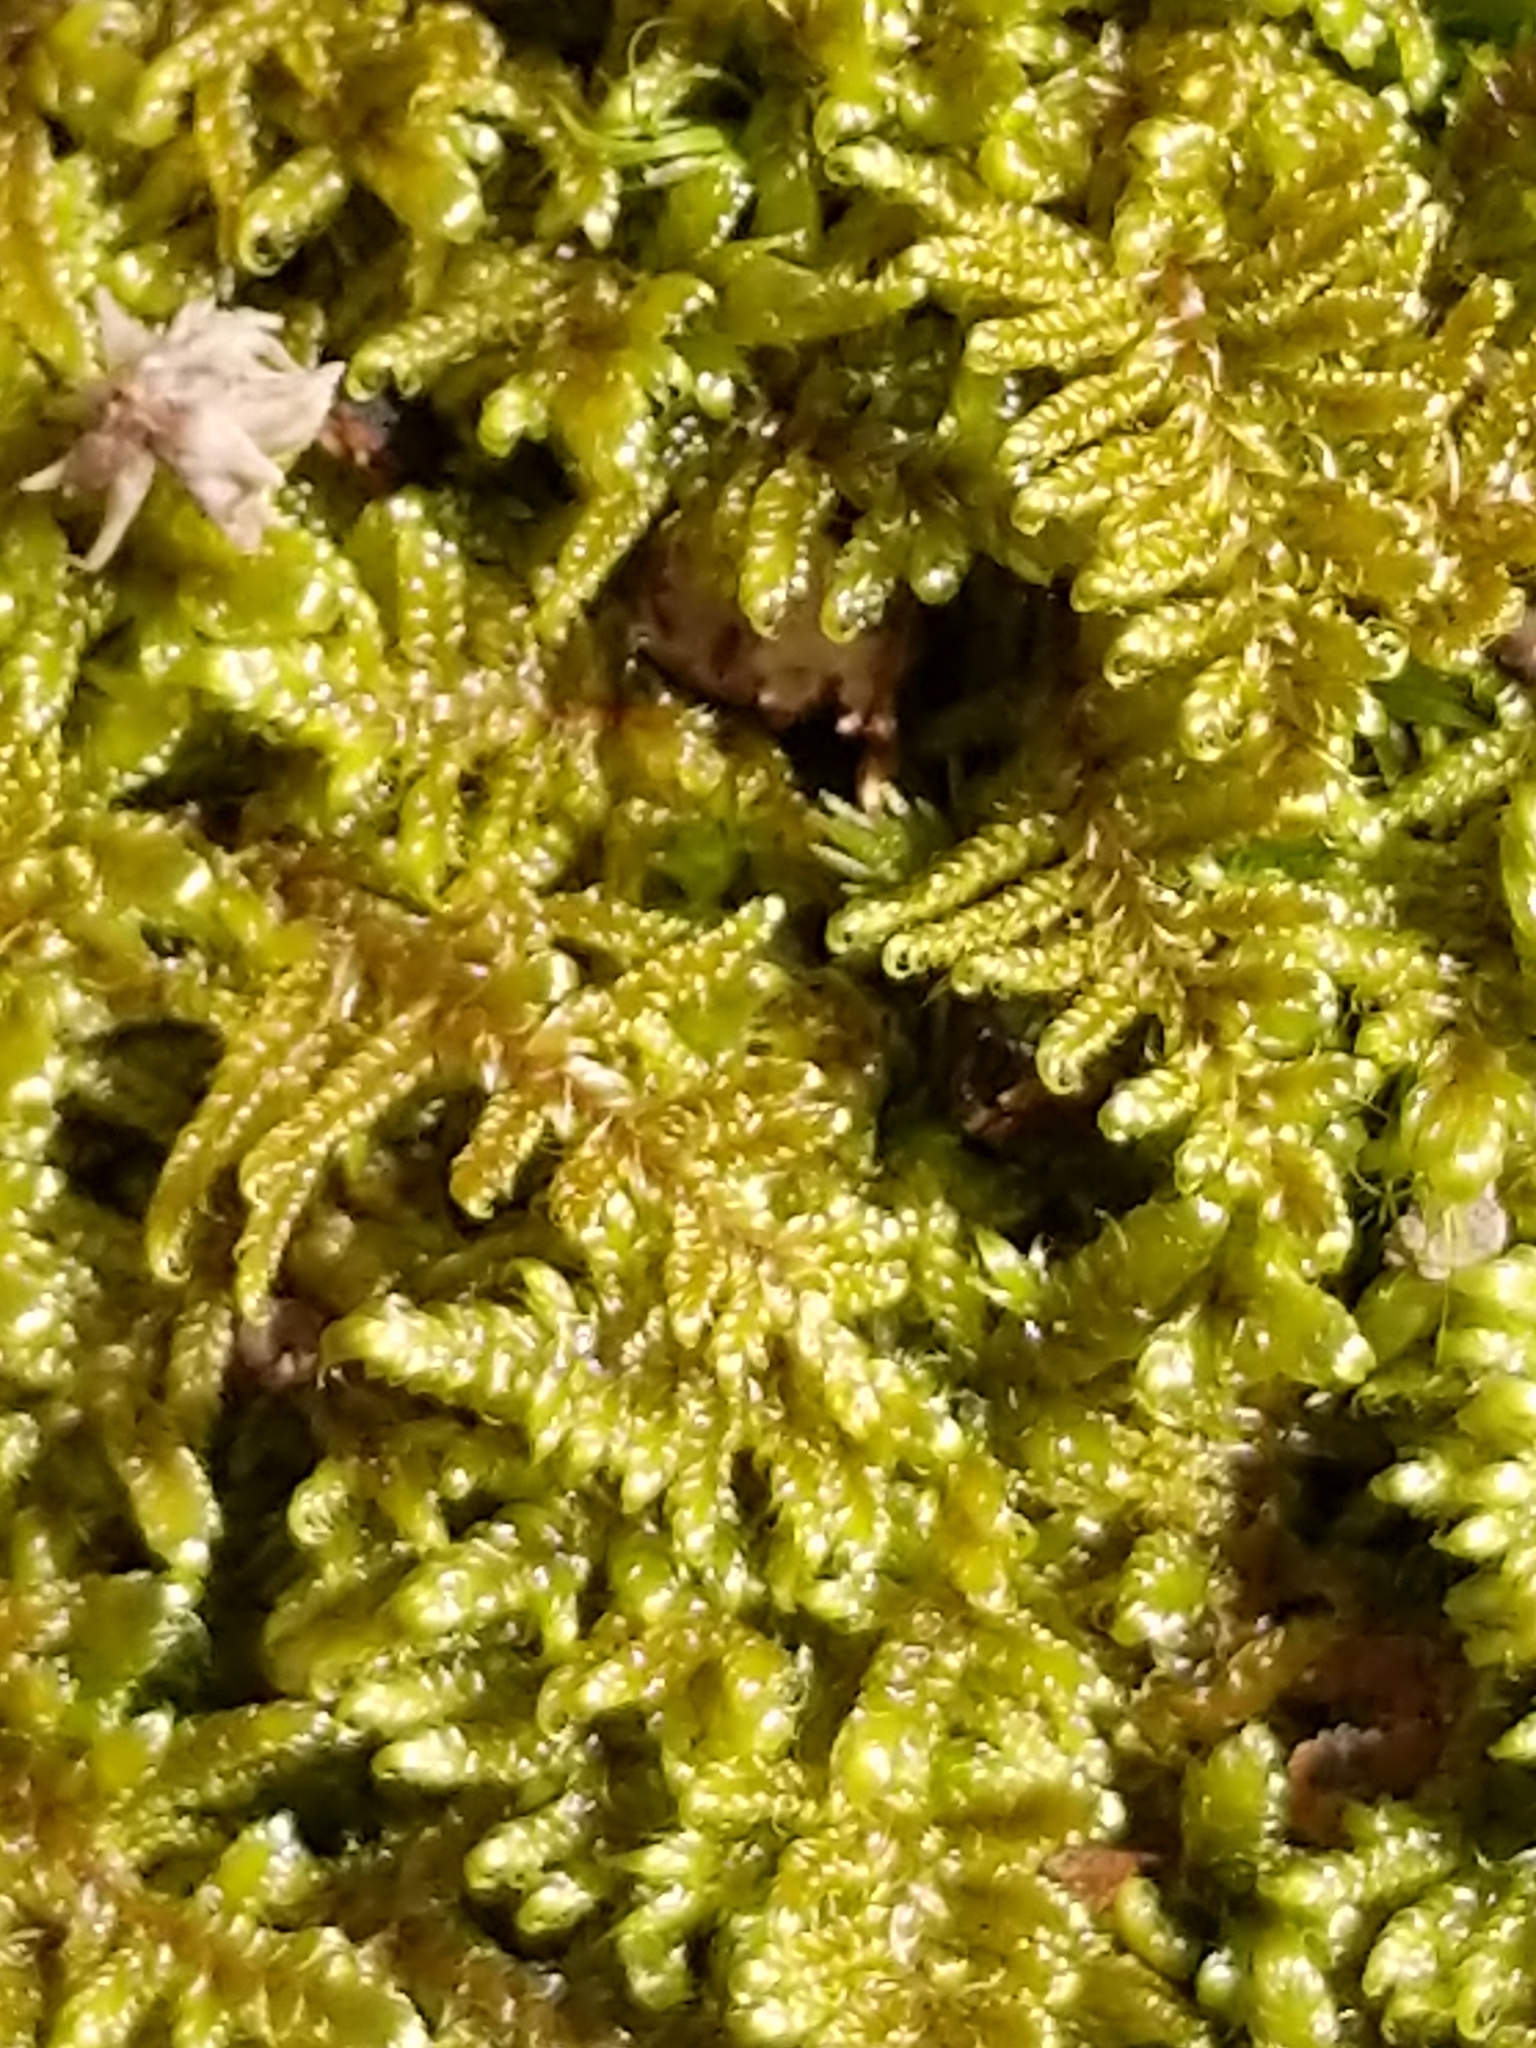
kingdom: Plantae
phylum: Bryophyta
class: Bryopsida
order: Hypnales
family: Callicladiaceae
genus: Callicladium
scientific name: Callicladium imponens
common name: Brocade moss
